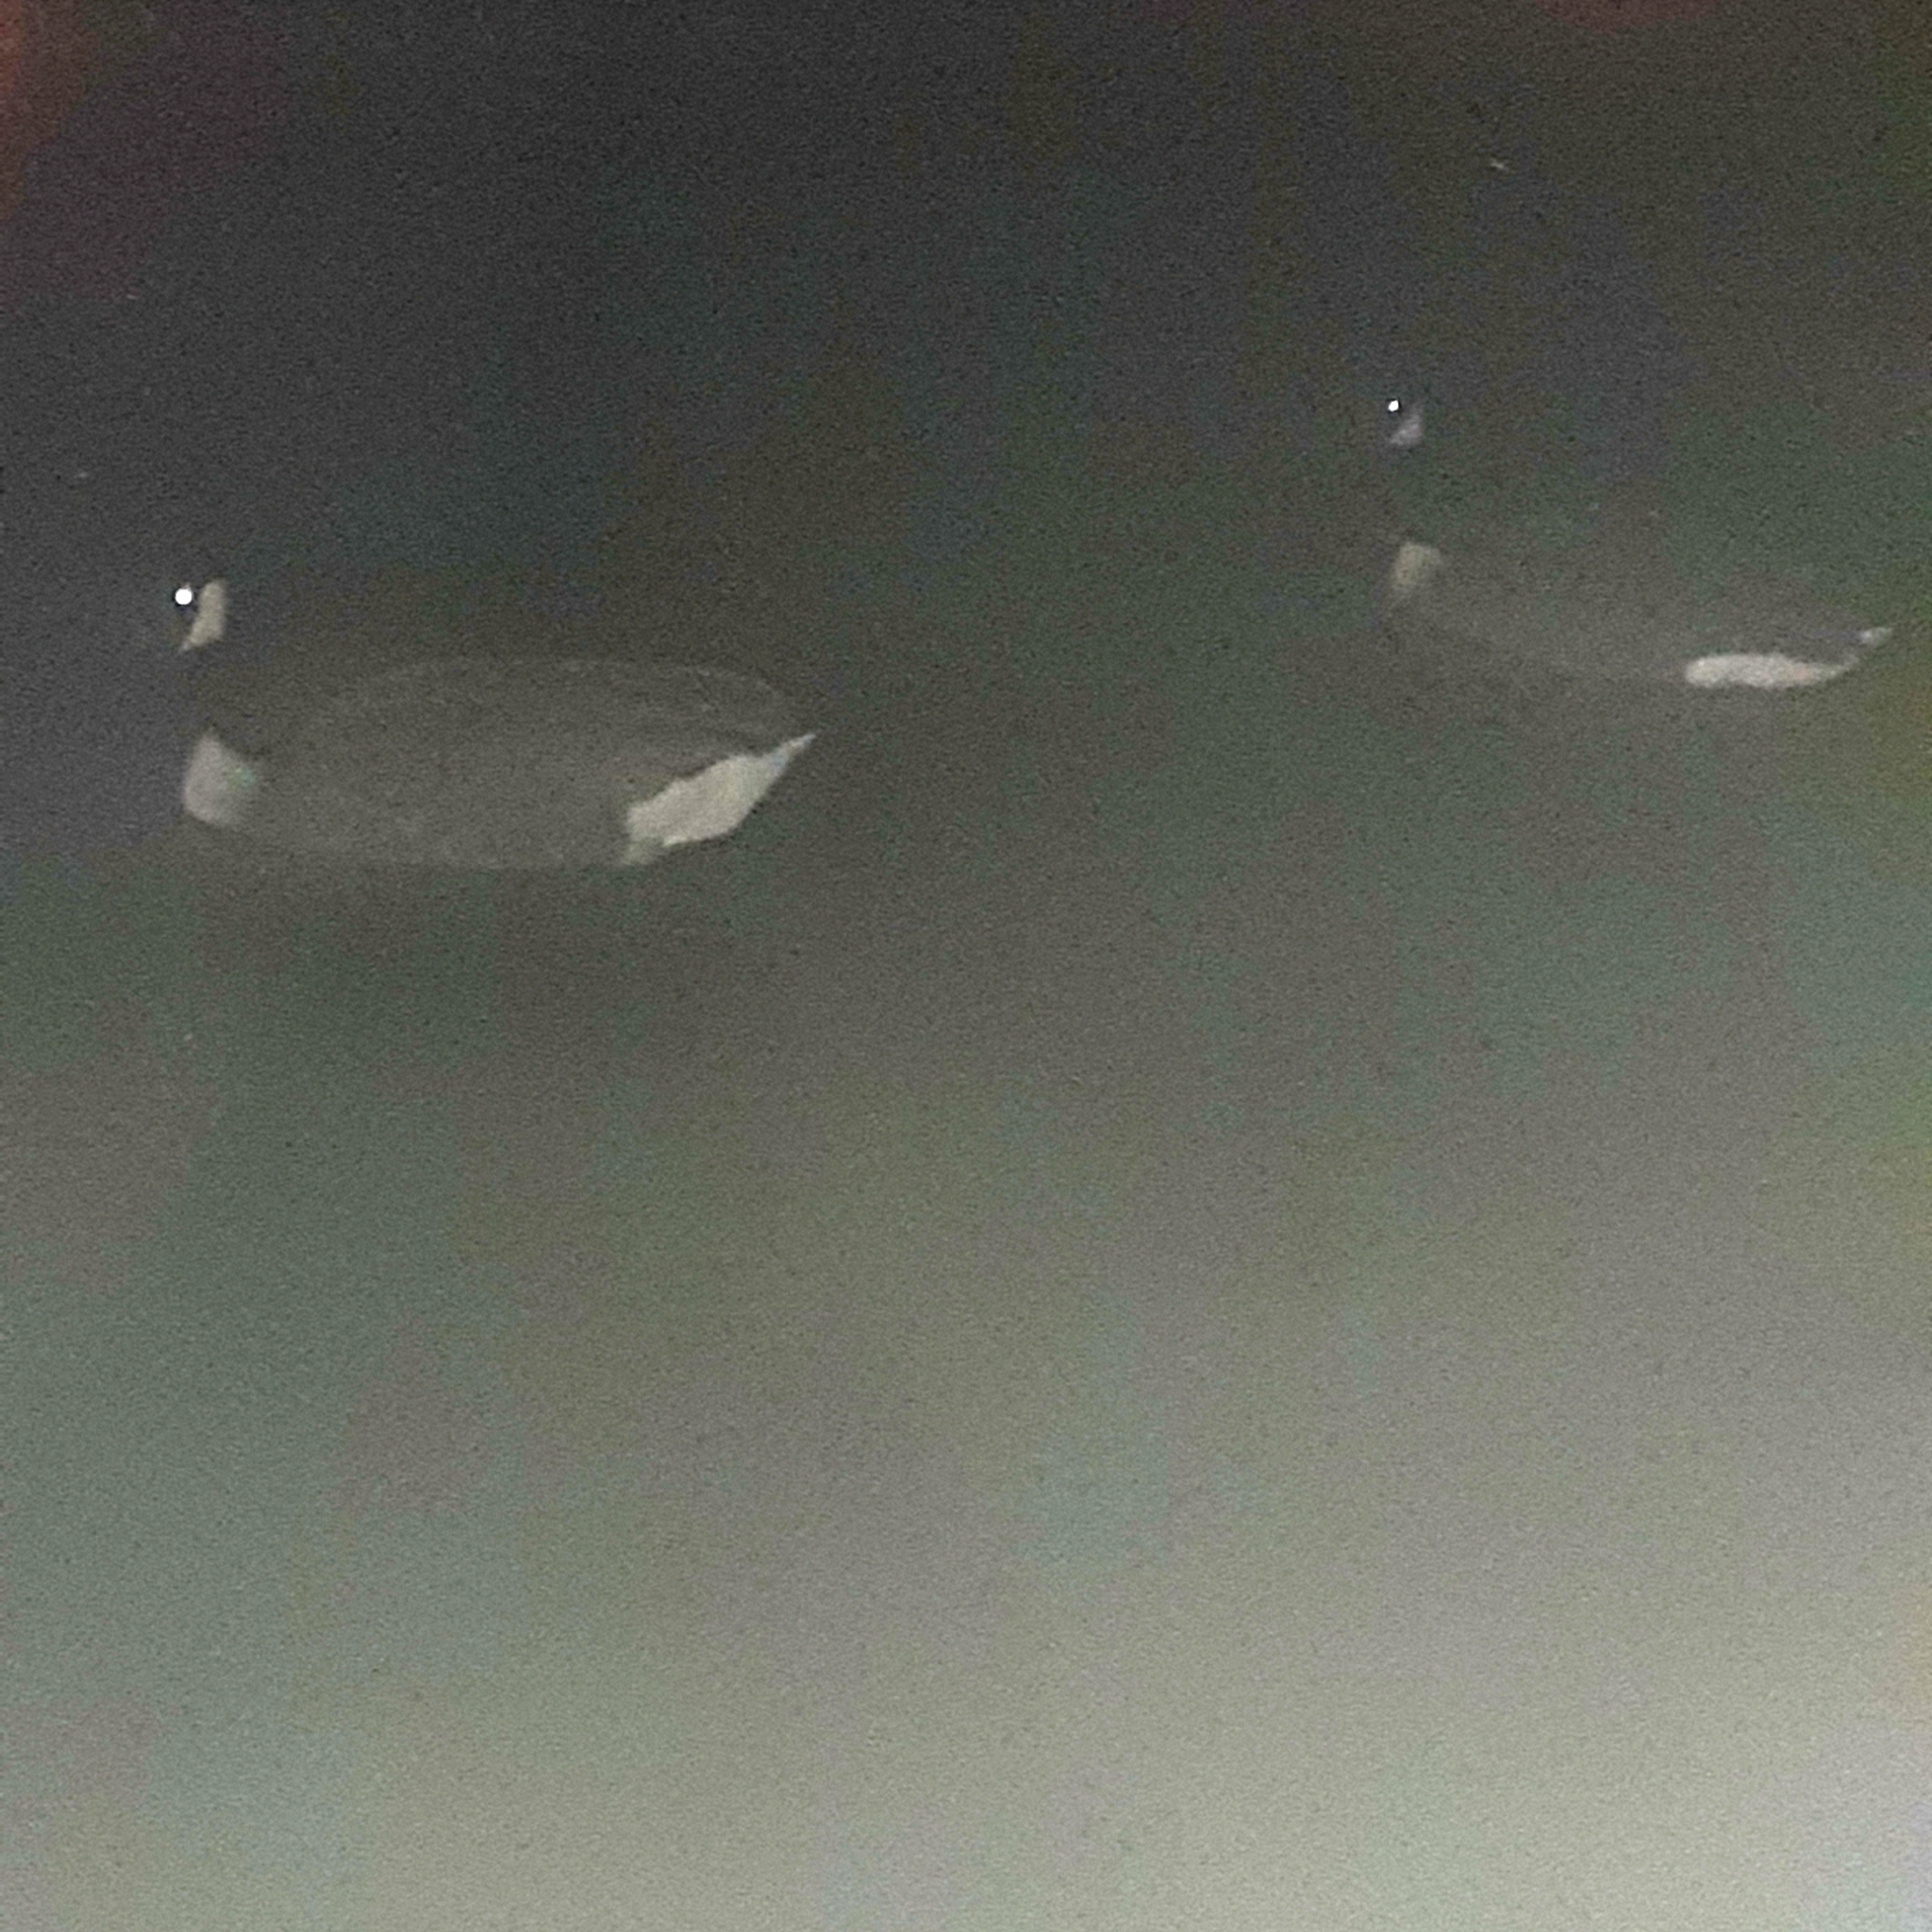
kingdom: Animalia
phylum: Chordata
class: Aves
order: Anseriformes
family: Anatidae
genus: Branta
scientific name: Branta canadensis
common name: Canada goose
